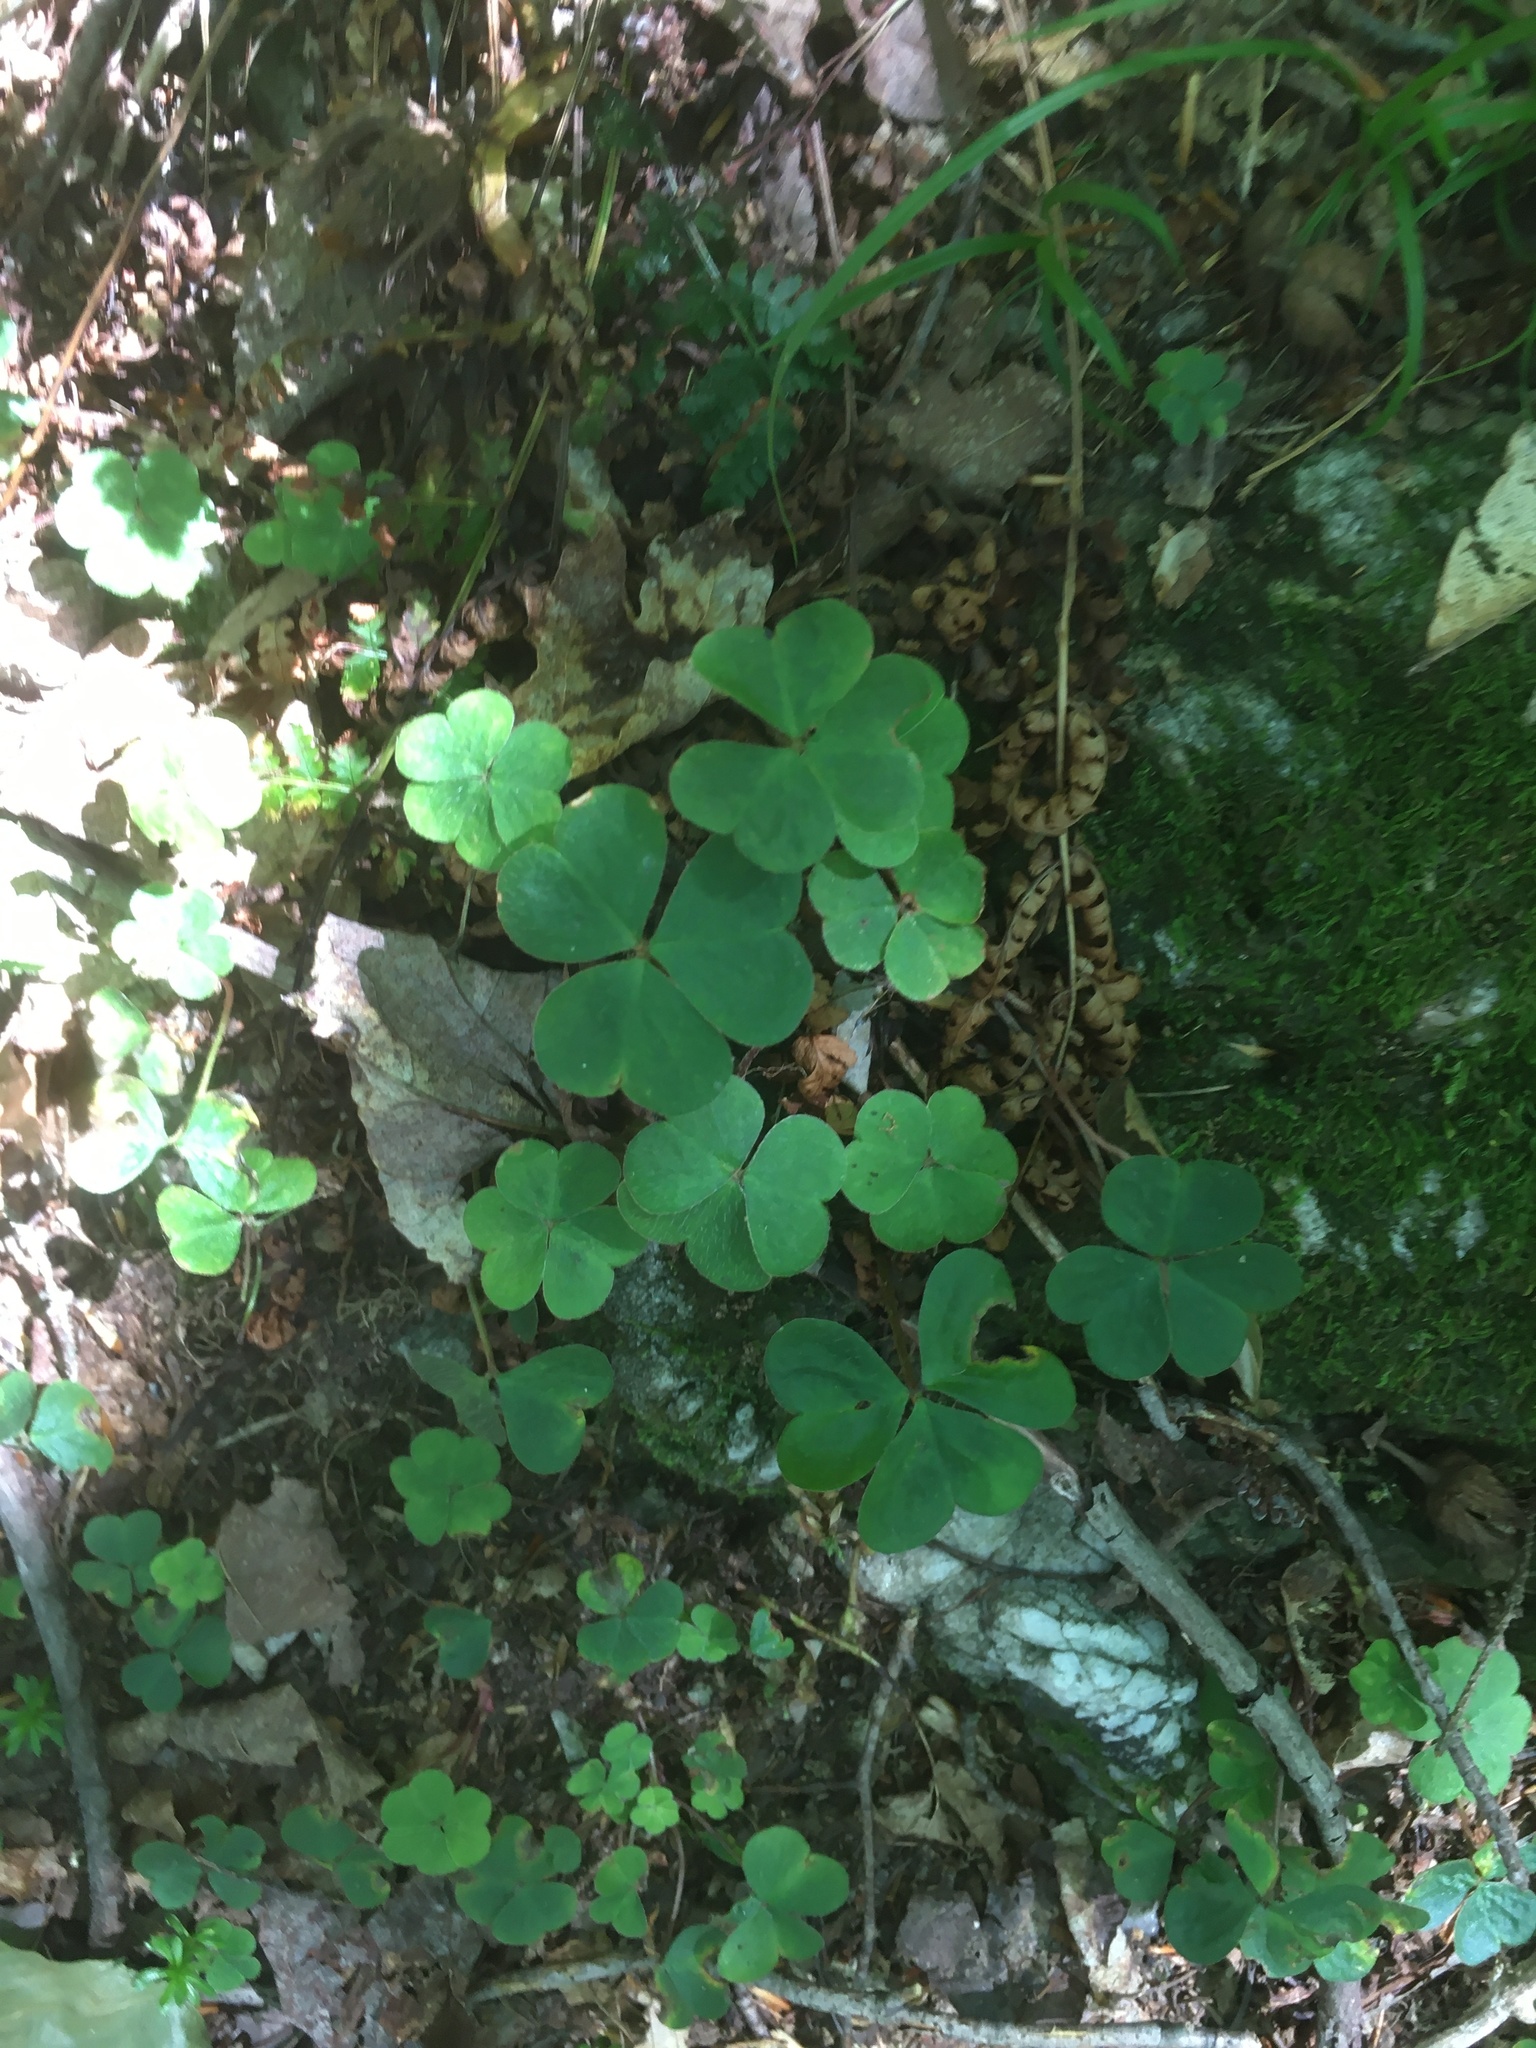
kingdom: Plantae
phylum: Tracheophyta
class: Magnoliopsida
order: Oxalidales
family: Oxalidaceae
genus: Oxalis
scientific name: Oxalis montana
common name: American wood-sorrel
